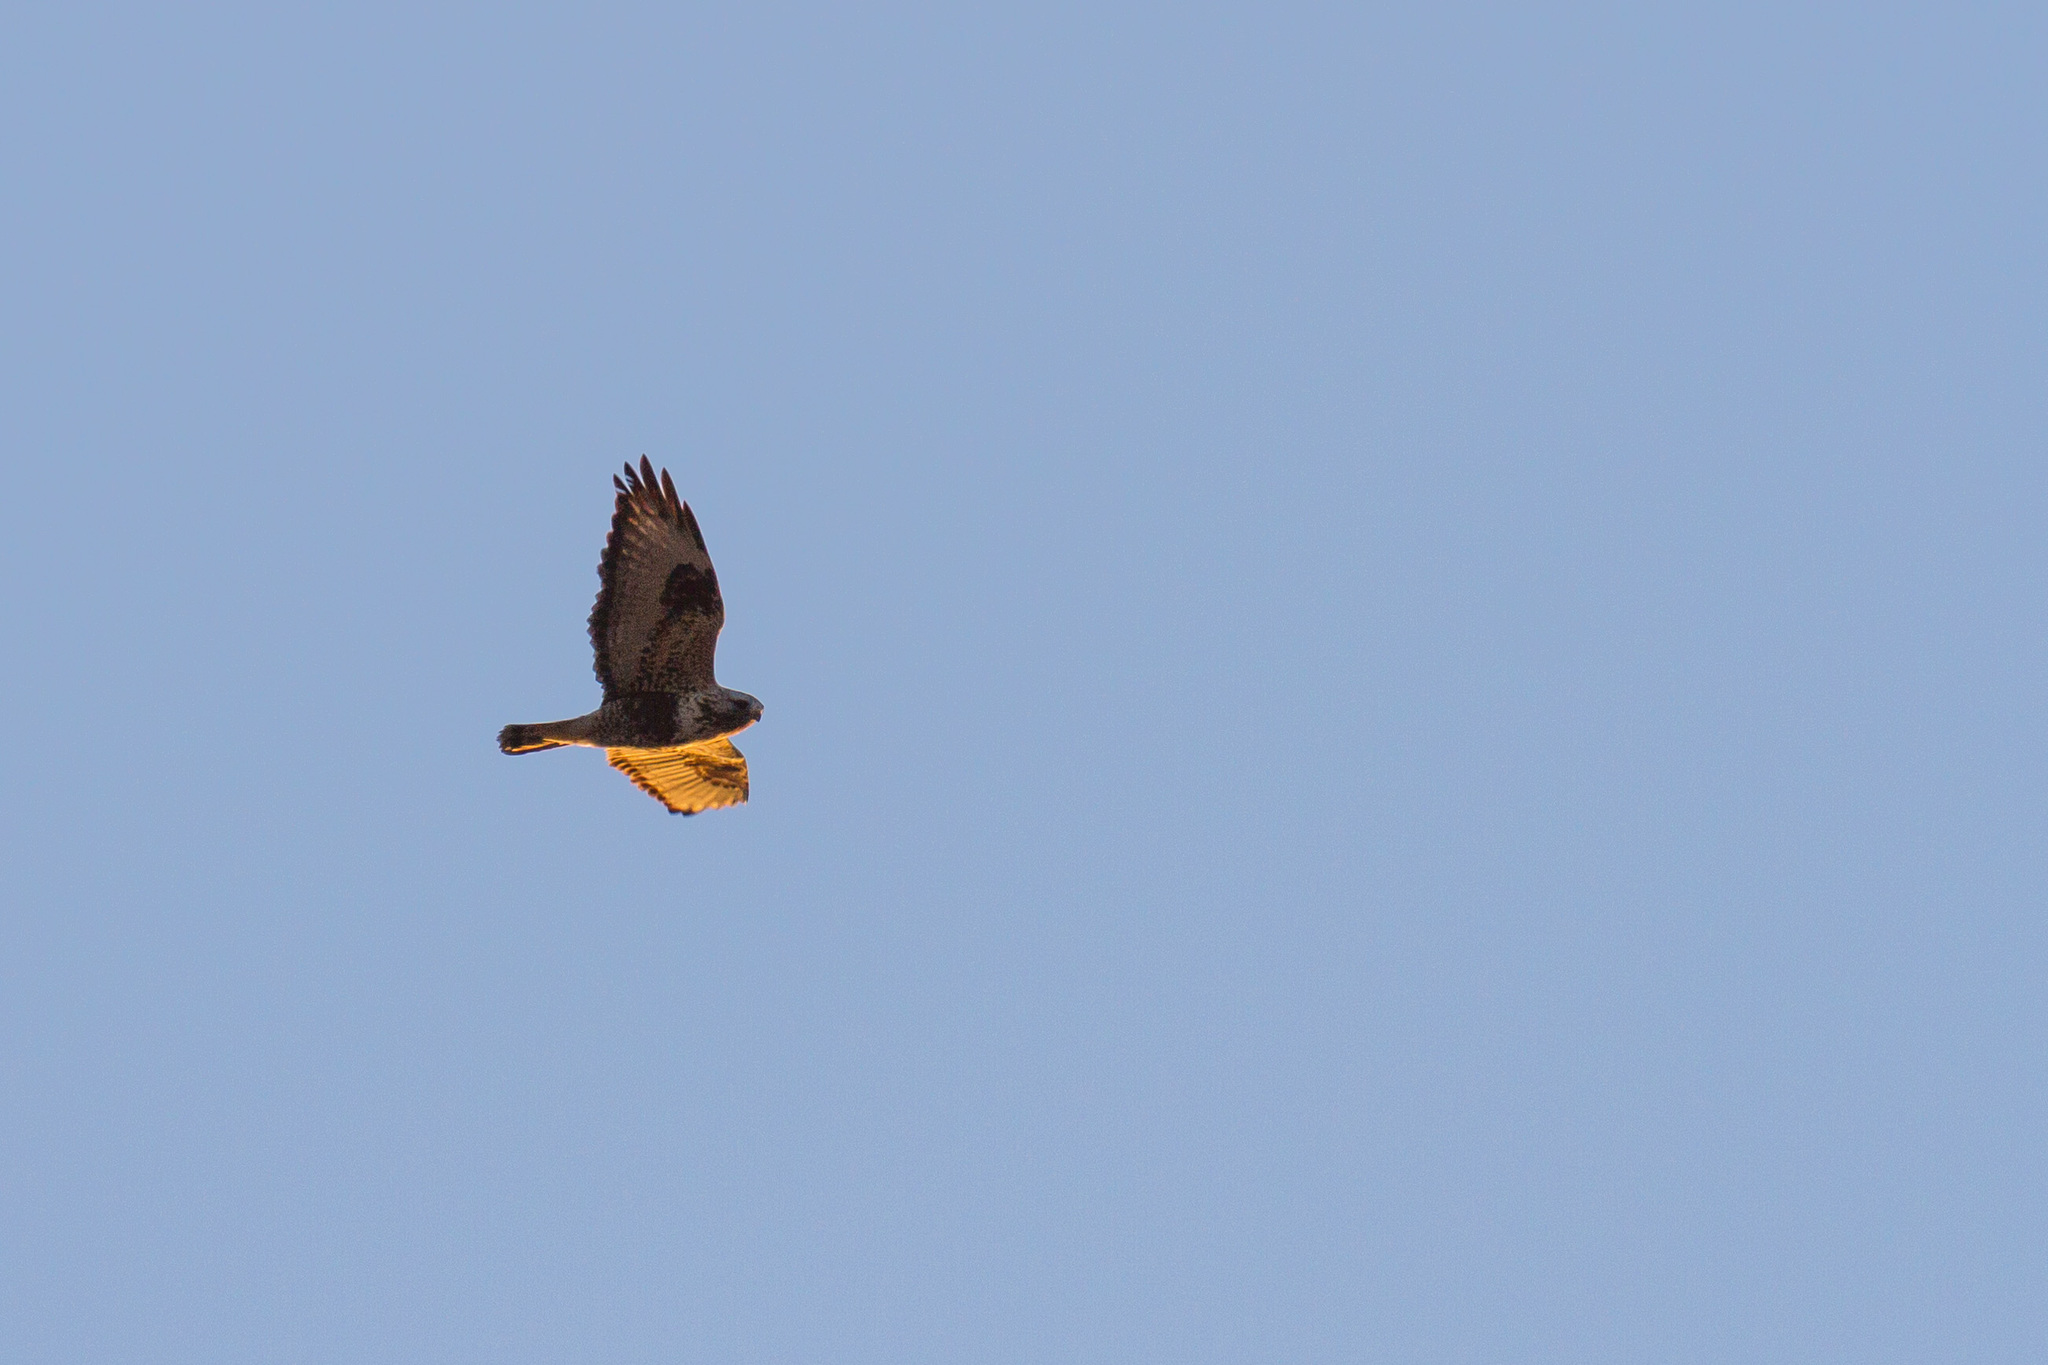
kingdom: Animalia
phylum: Chordata
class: Aves
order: Accipitriformes
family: Accipitridae
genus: Buteo
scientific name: Buteo lagopus
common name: Rough-legged buzzard
